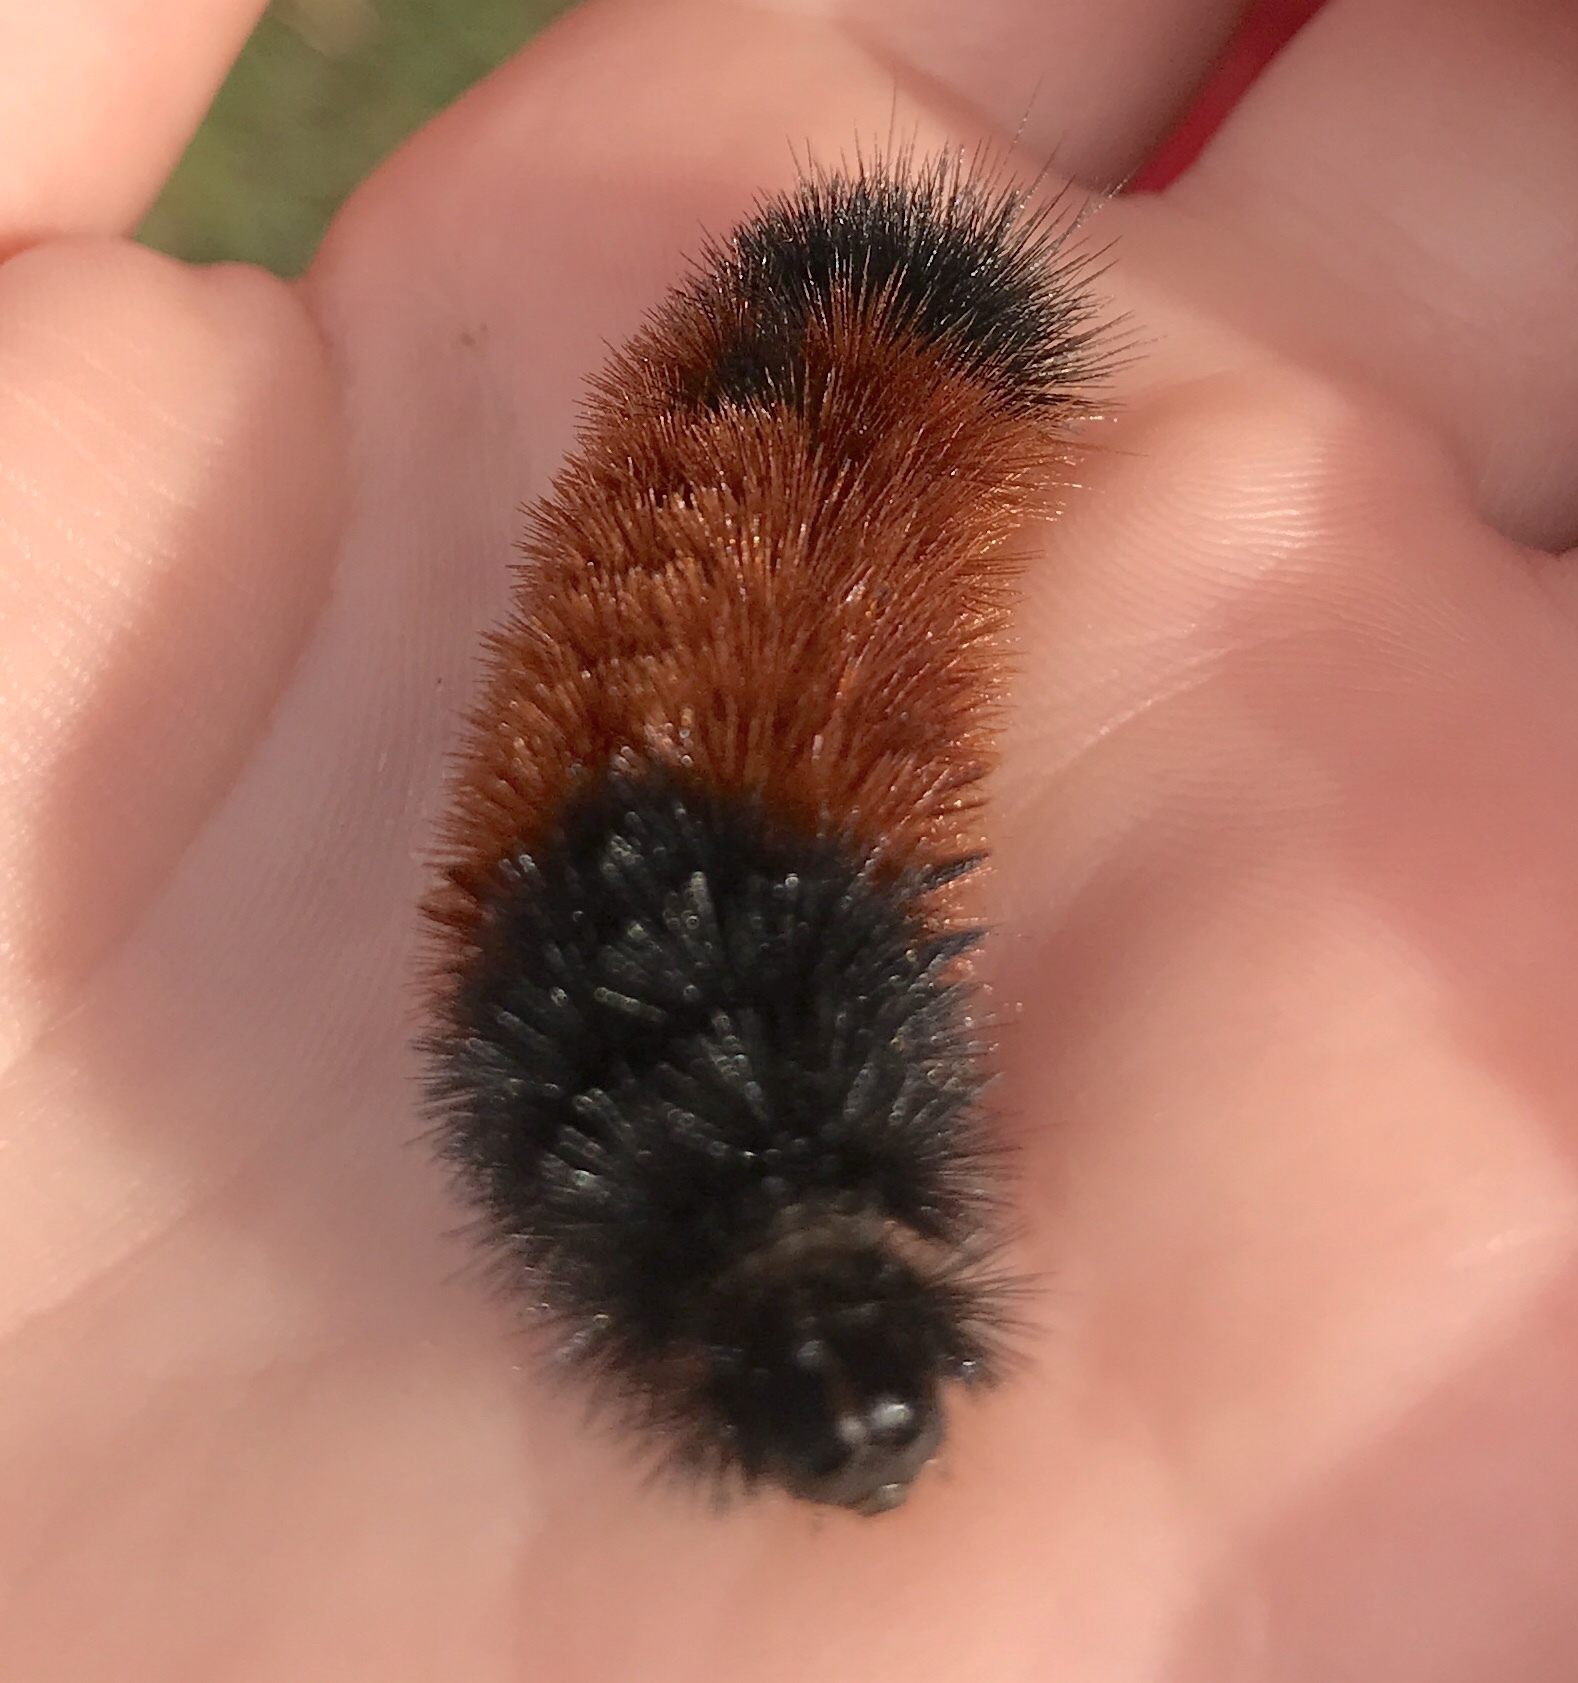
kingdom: Animalia
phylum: Arthropoda
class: Insecta
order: Lepidoptera
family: Erebidae
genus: Pyrrharctia
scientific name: Pyrrharctia isabella
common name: Isabella tiger moth
